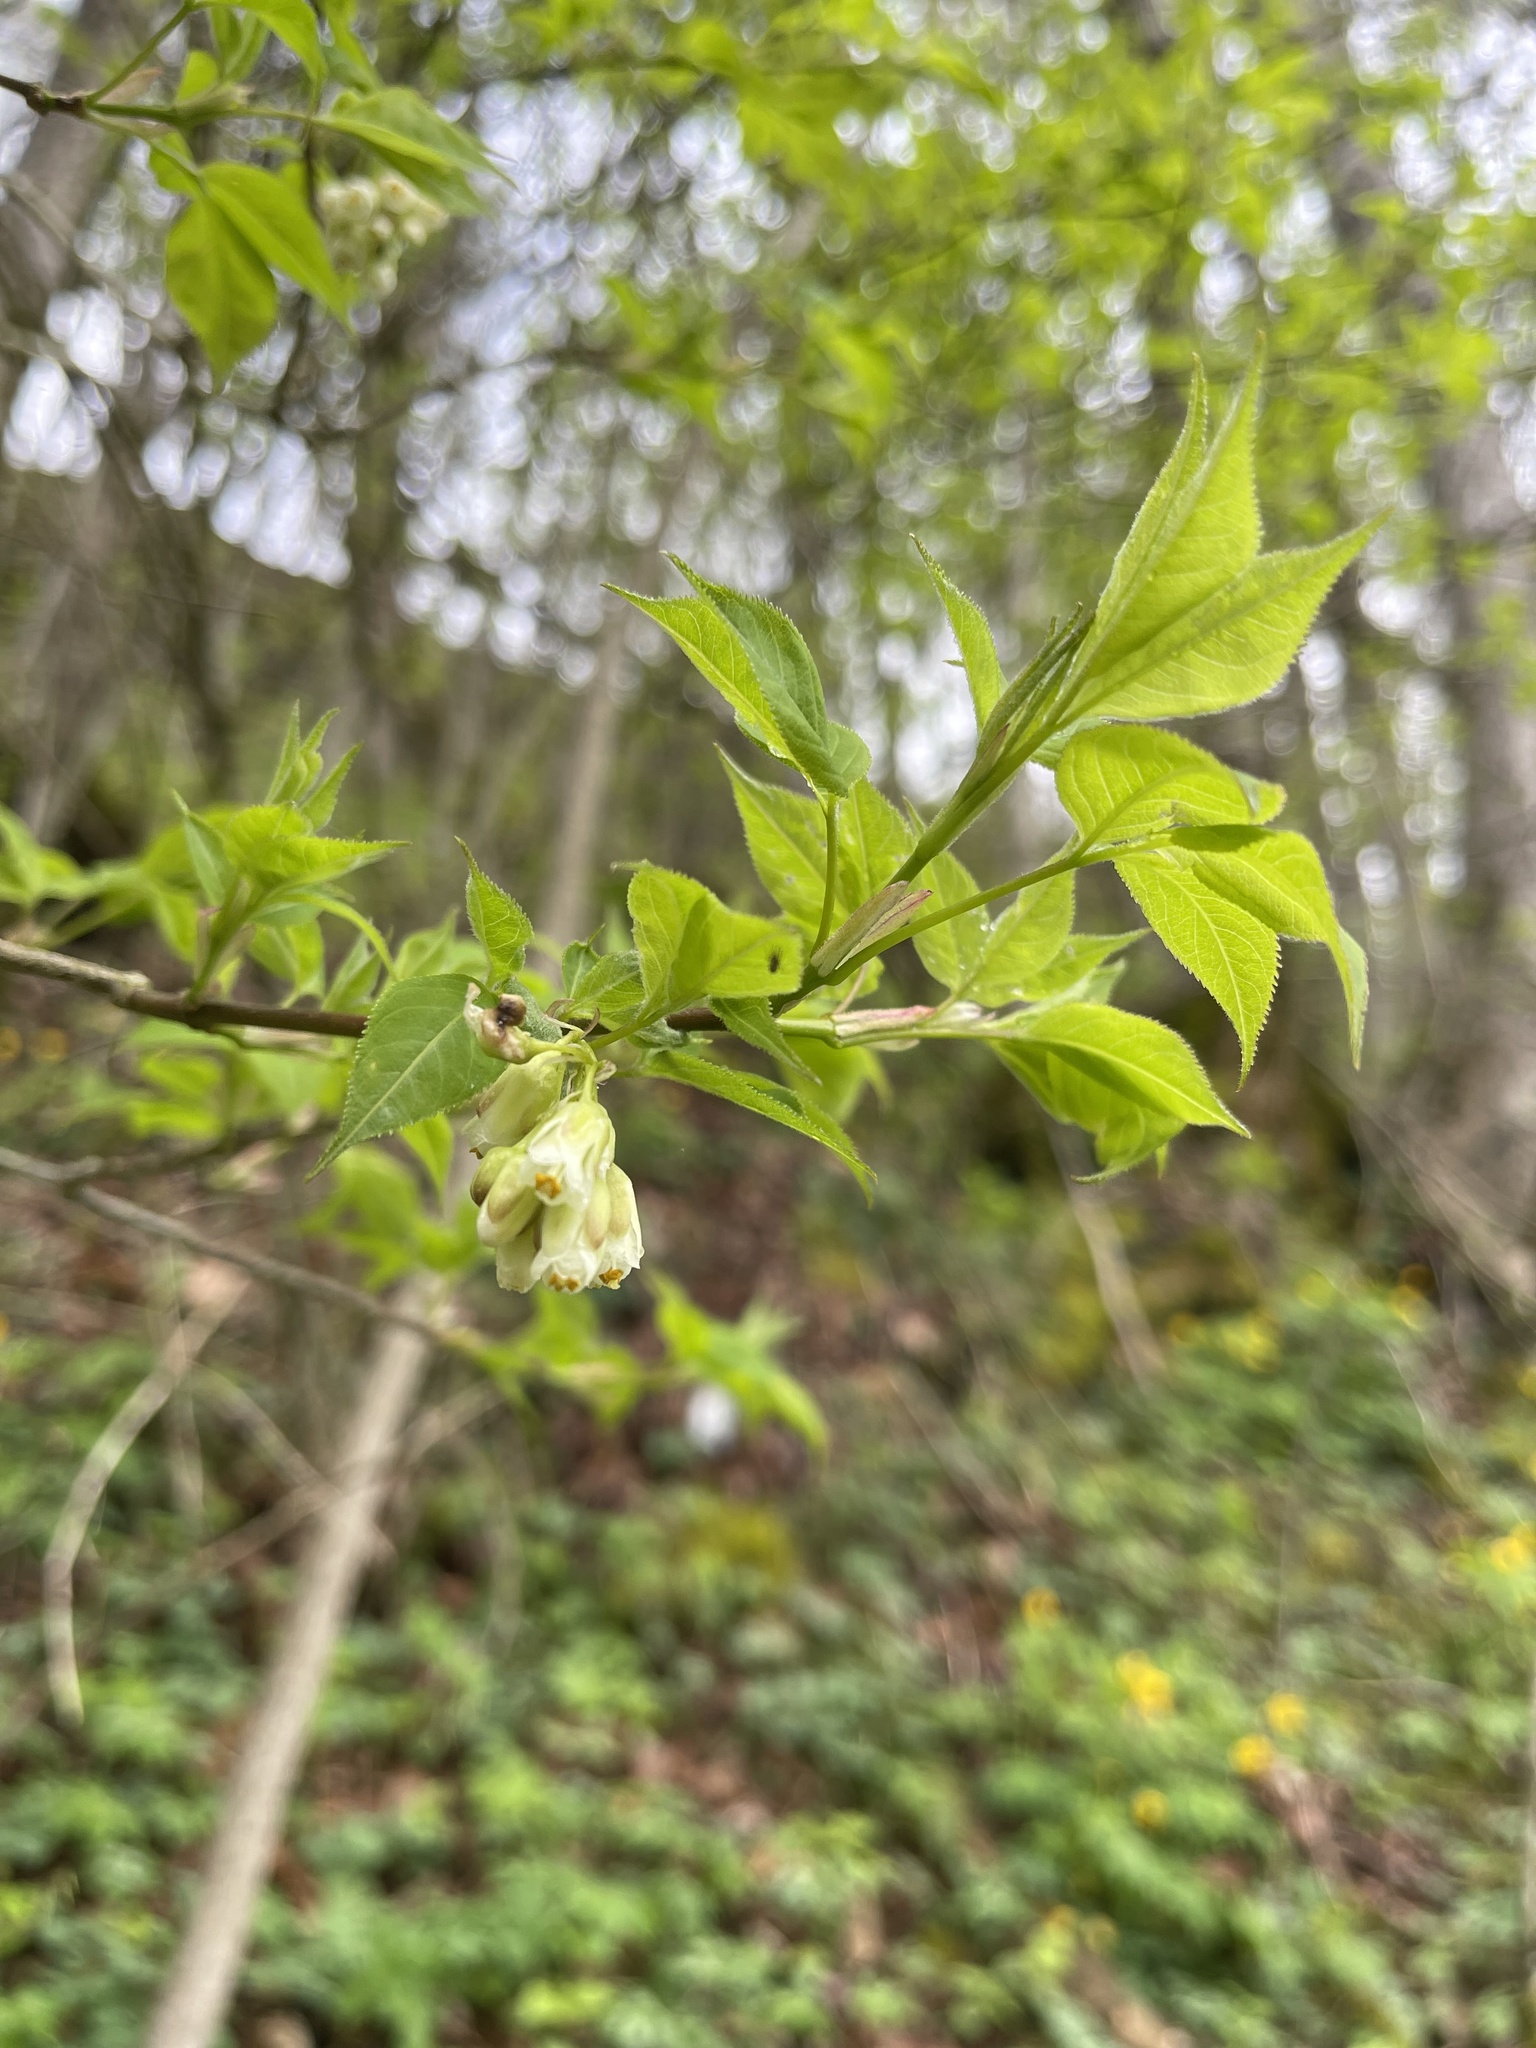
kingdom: Plantae
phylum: Tracheophyta
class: Magnoliopsida
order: Crossosomatales
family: Staphyleaceae
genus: Staphylea
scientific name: Staphylea trifolia
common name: American bladdernut
